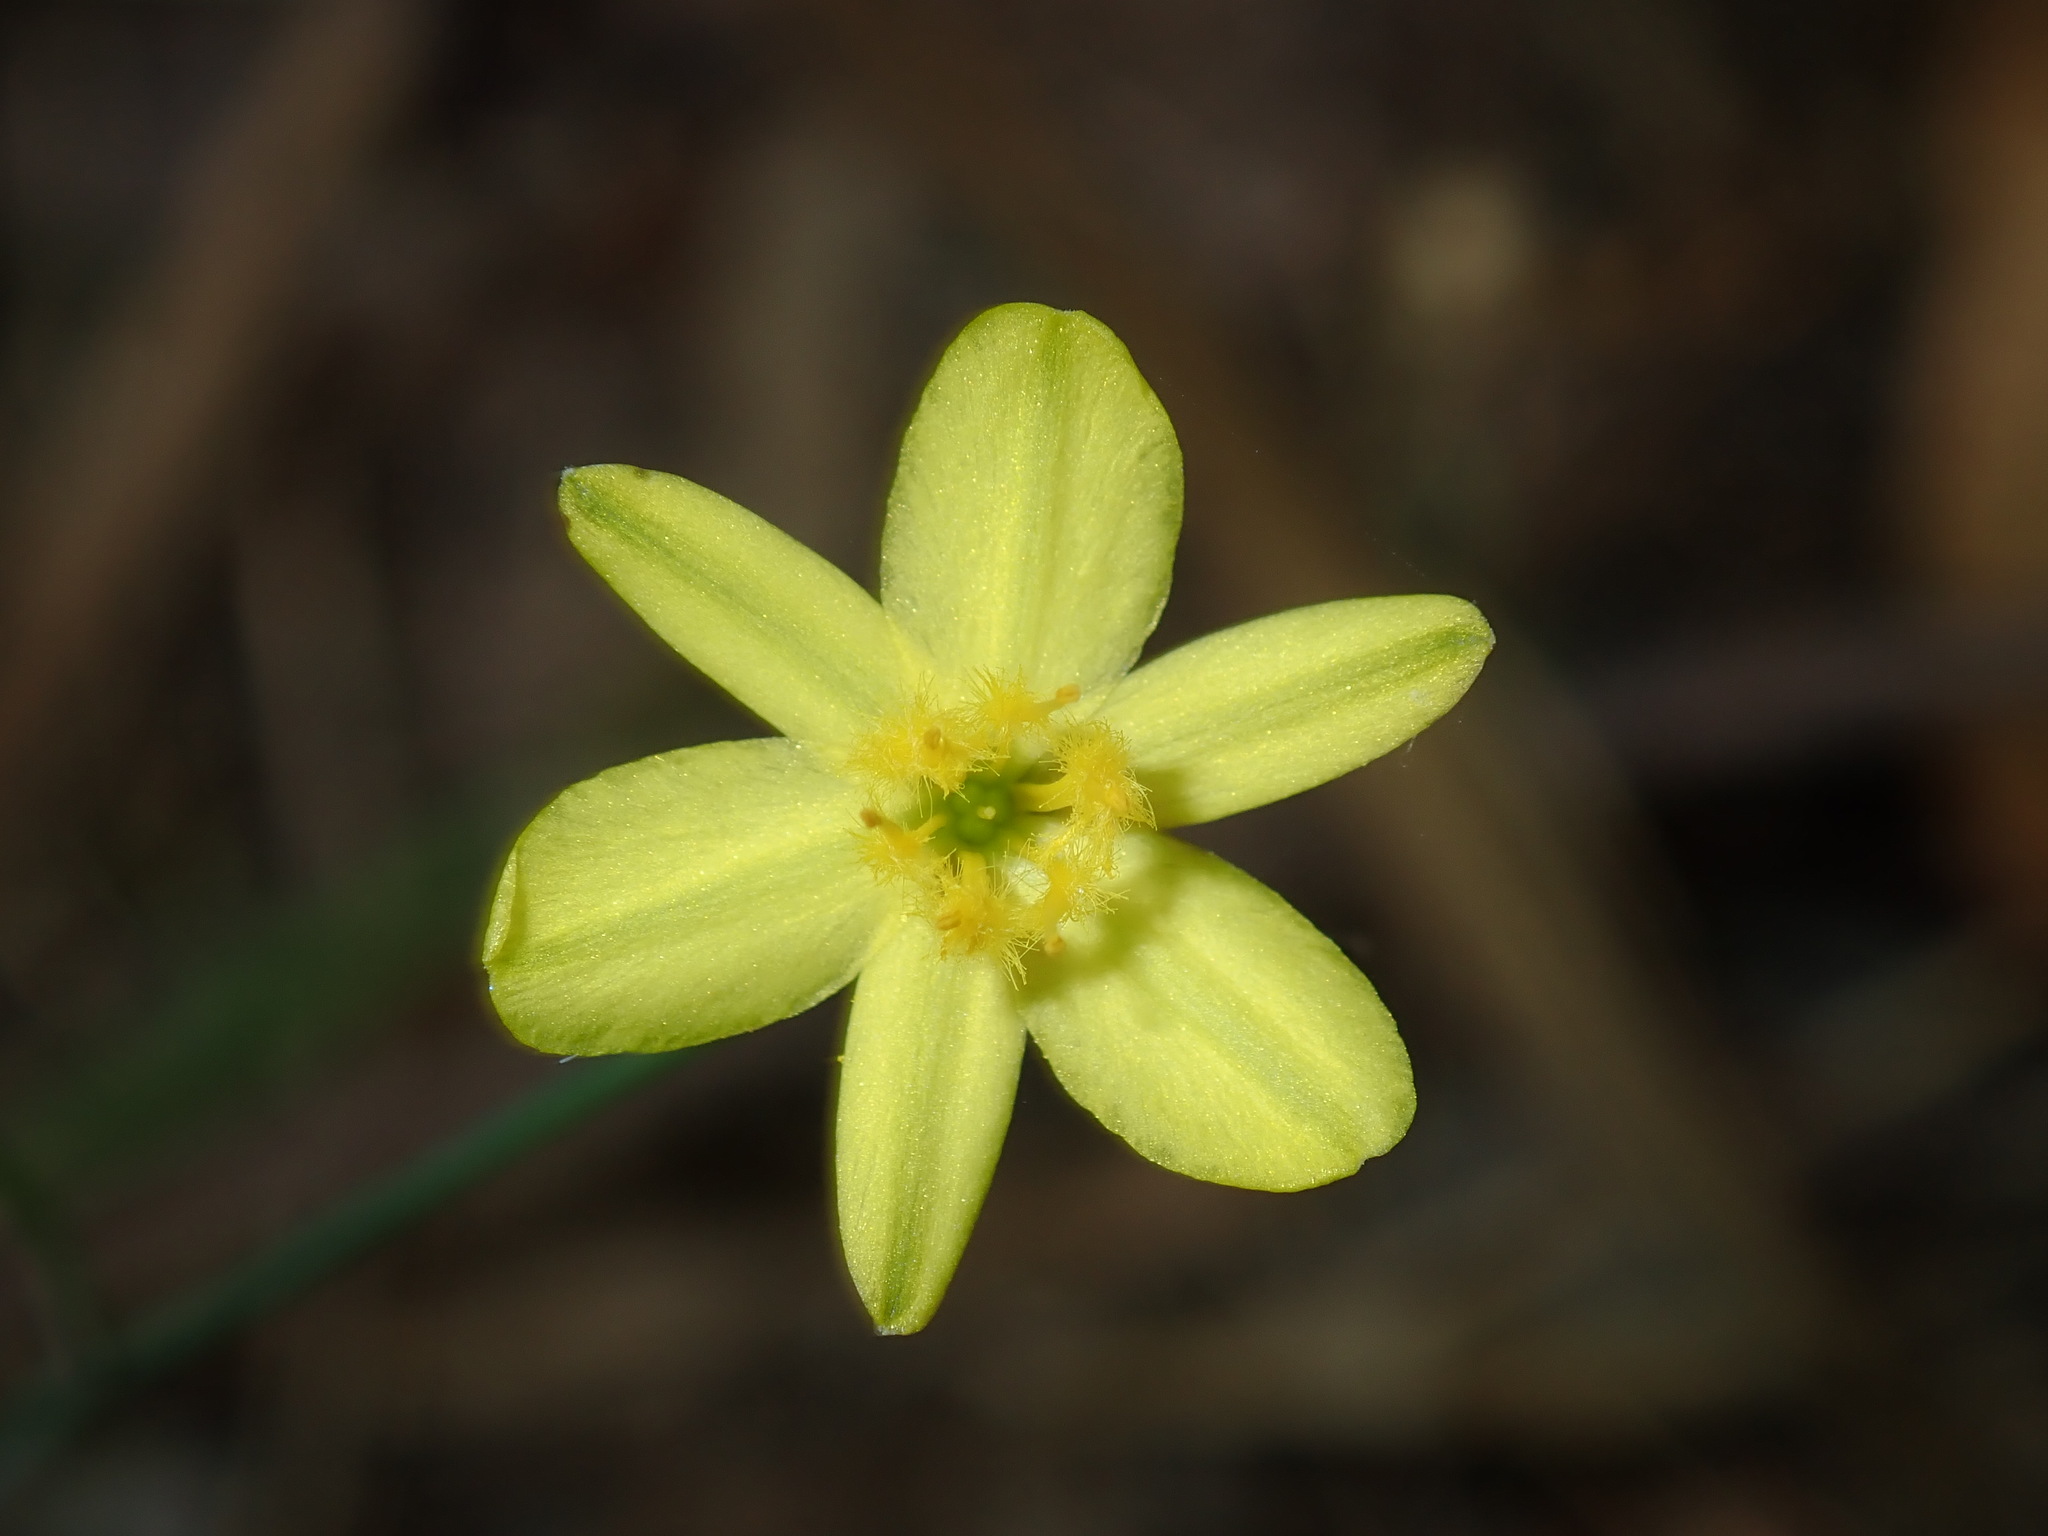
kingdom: Plantae
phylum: Tracheophyta
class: Liliopsida
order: Asparagales
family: Asphodelaceae
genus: Tricoryne
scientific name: Tricoryne elatior
